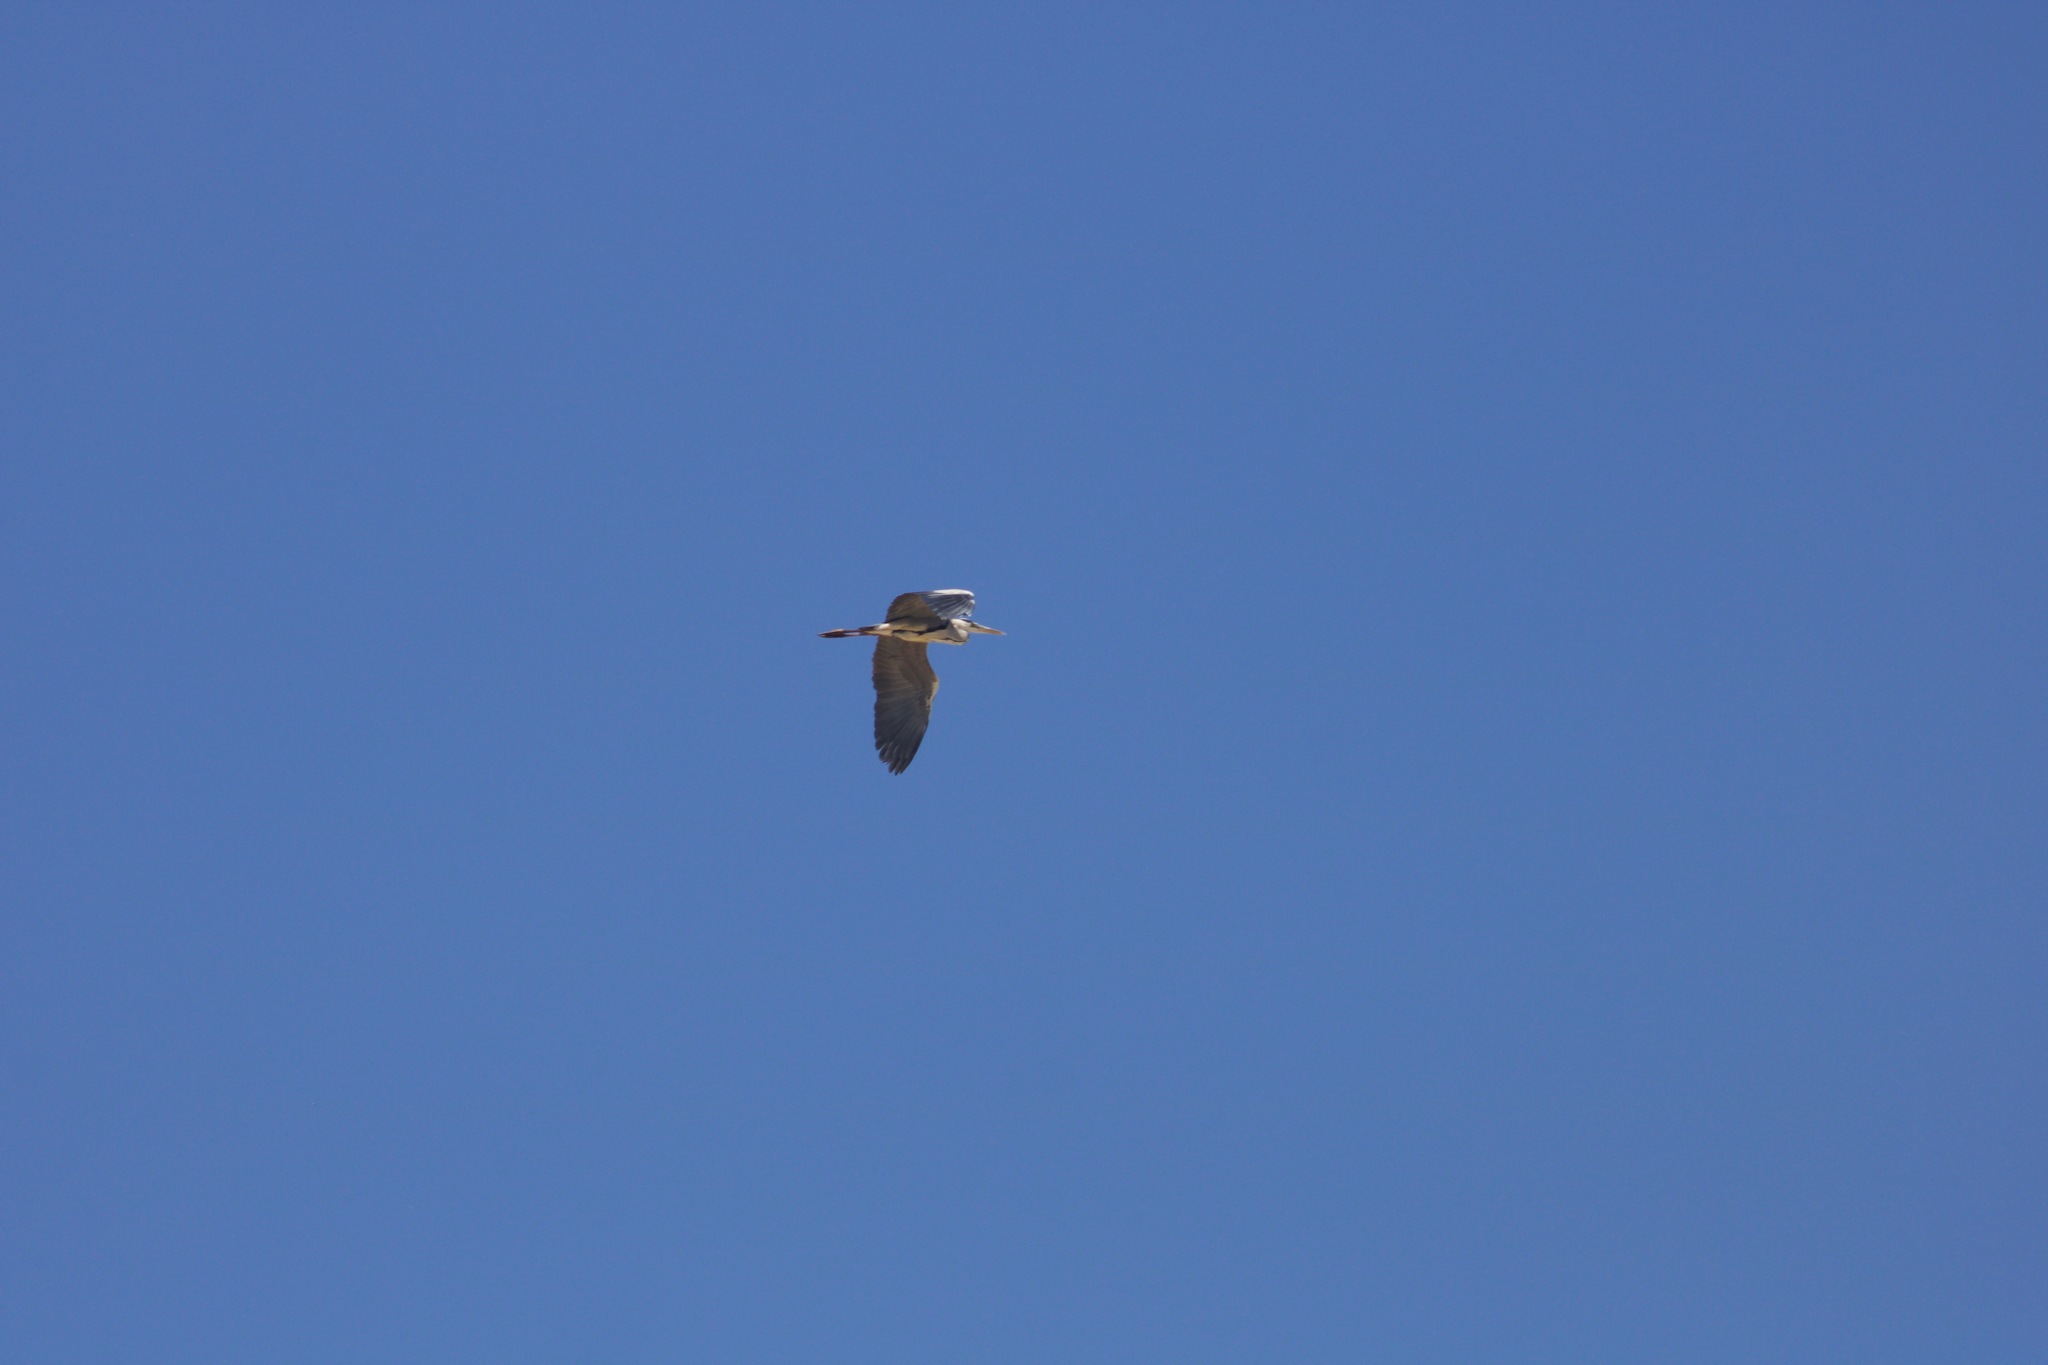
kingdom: Animalia
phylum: Chordata
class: Aves
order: Pelecaniformes
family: Ardeidae
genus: Ardea
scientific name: Ardea cinerea
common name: Grey heron
